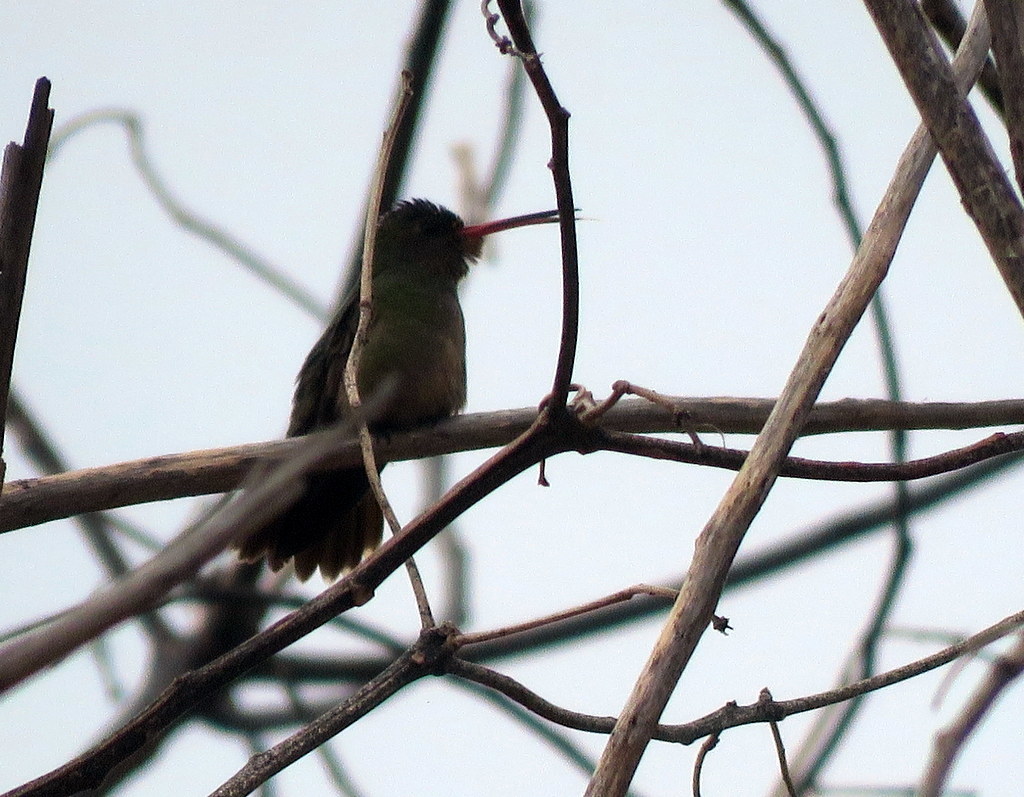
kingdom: Animalia
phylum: Chordata
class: Aves
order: Apodiformes
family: Trochilidae
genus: Hylocharis
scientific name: Hylocharis chrysura
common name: Gilded sapphire
